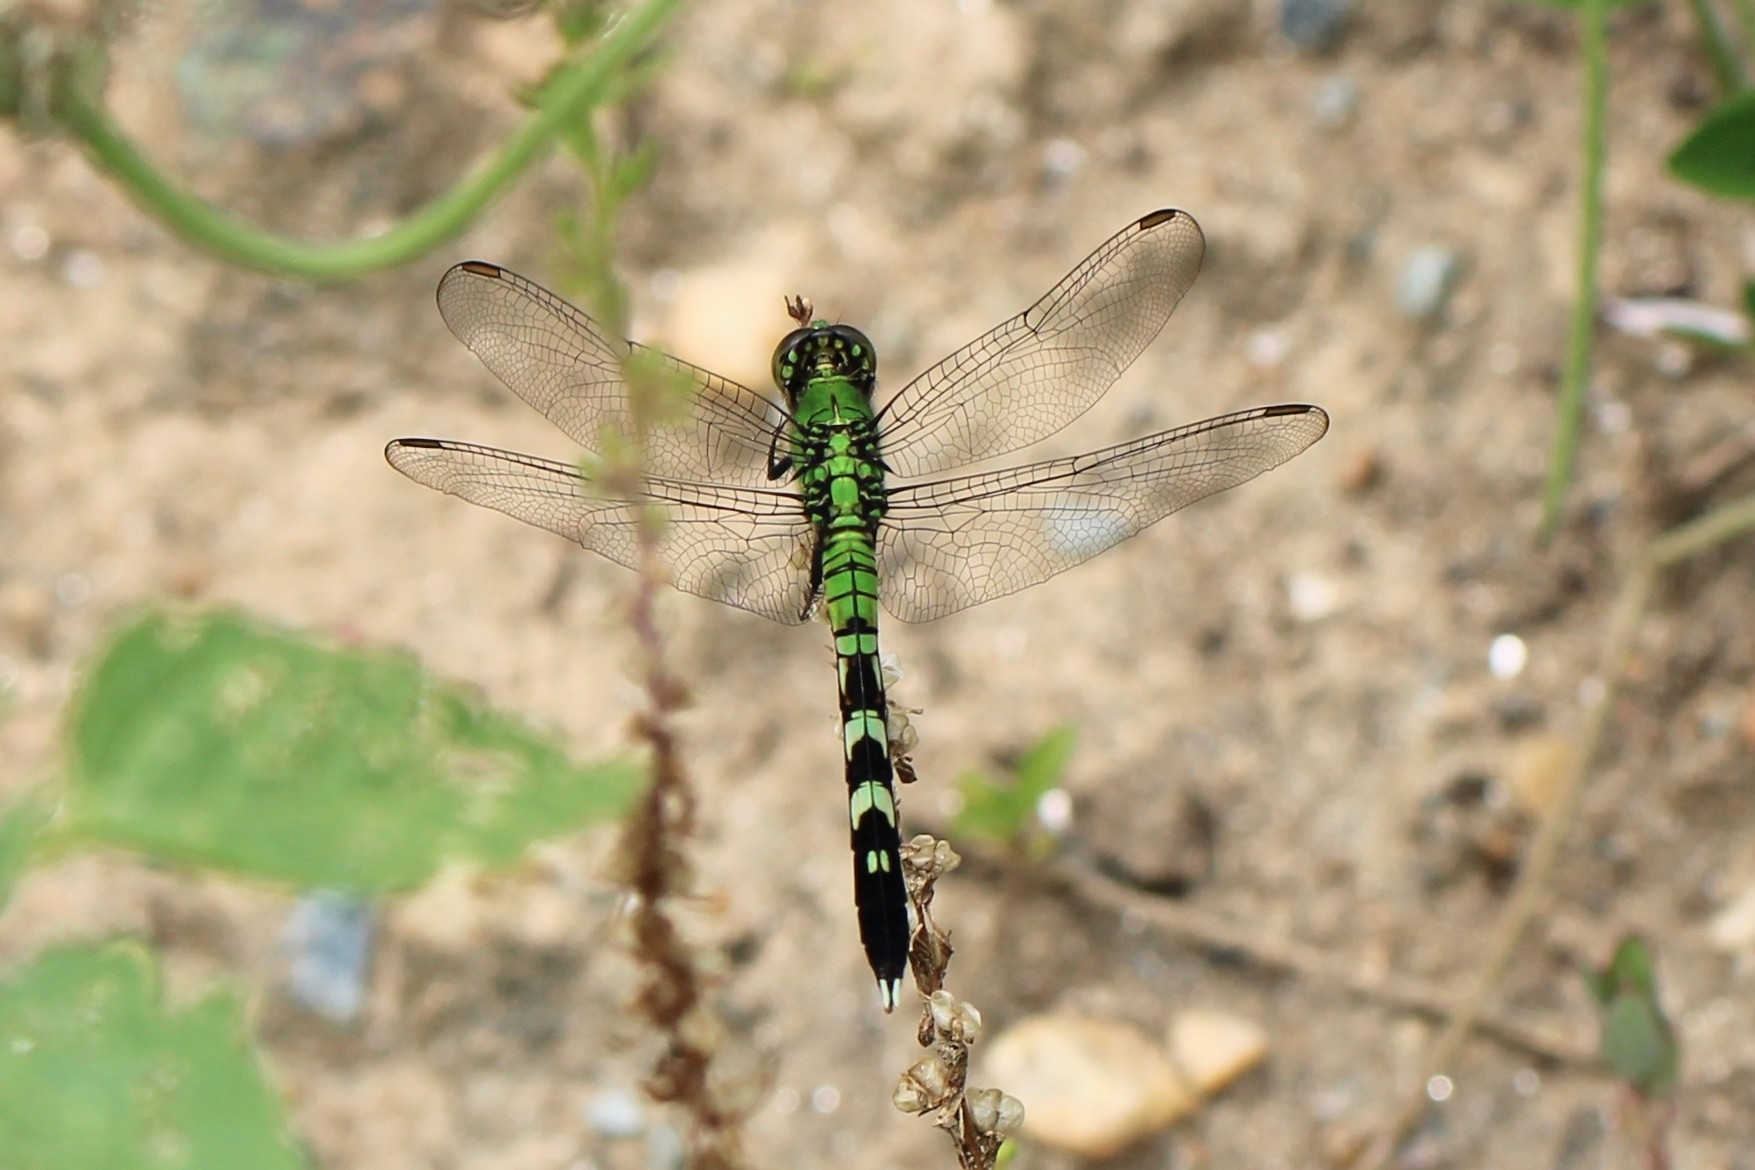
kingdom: Animalia
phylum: Arthropoda
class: Insecta
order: Odonata
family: Libellulidae
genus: Erythemis
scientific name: Erythemis simplicicollis
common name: Eastern pondhawk
